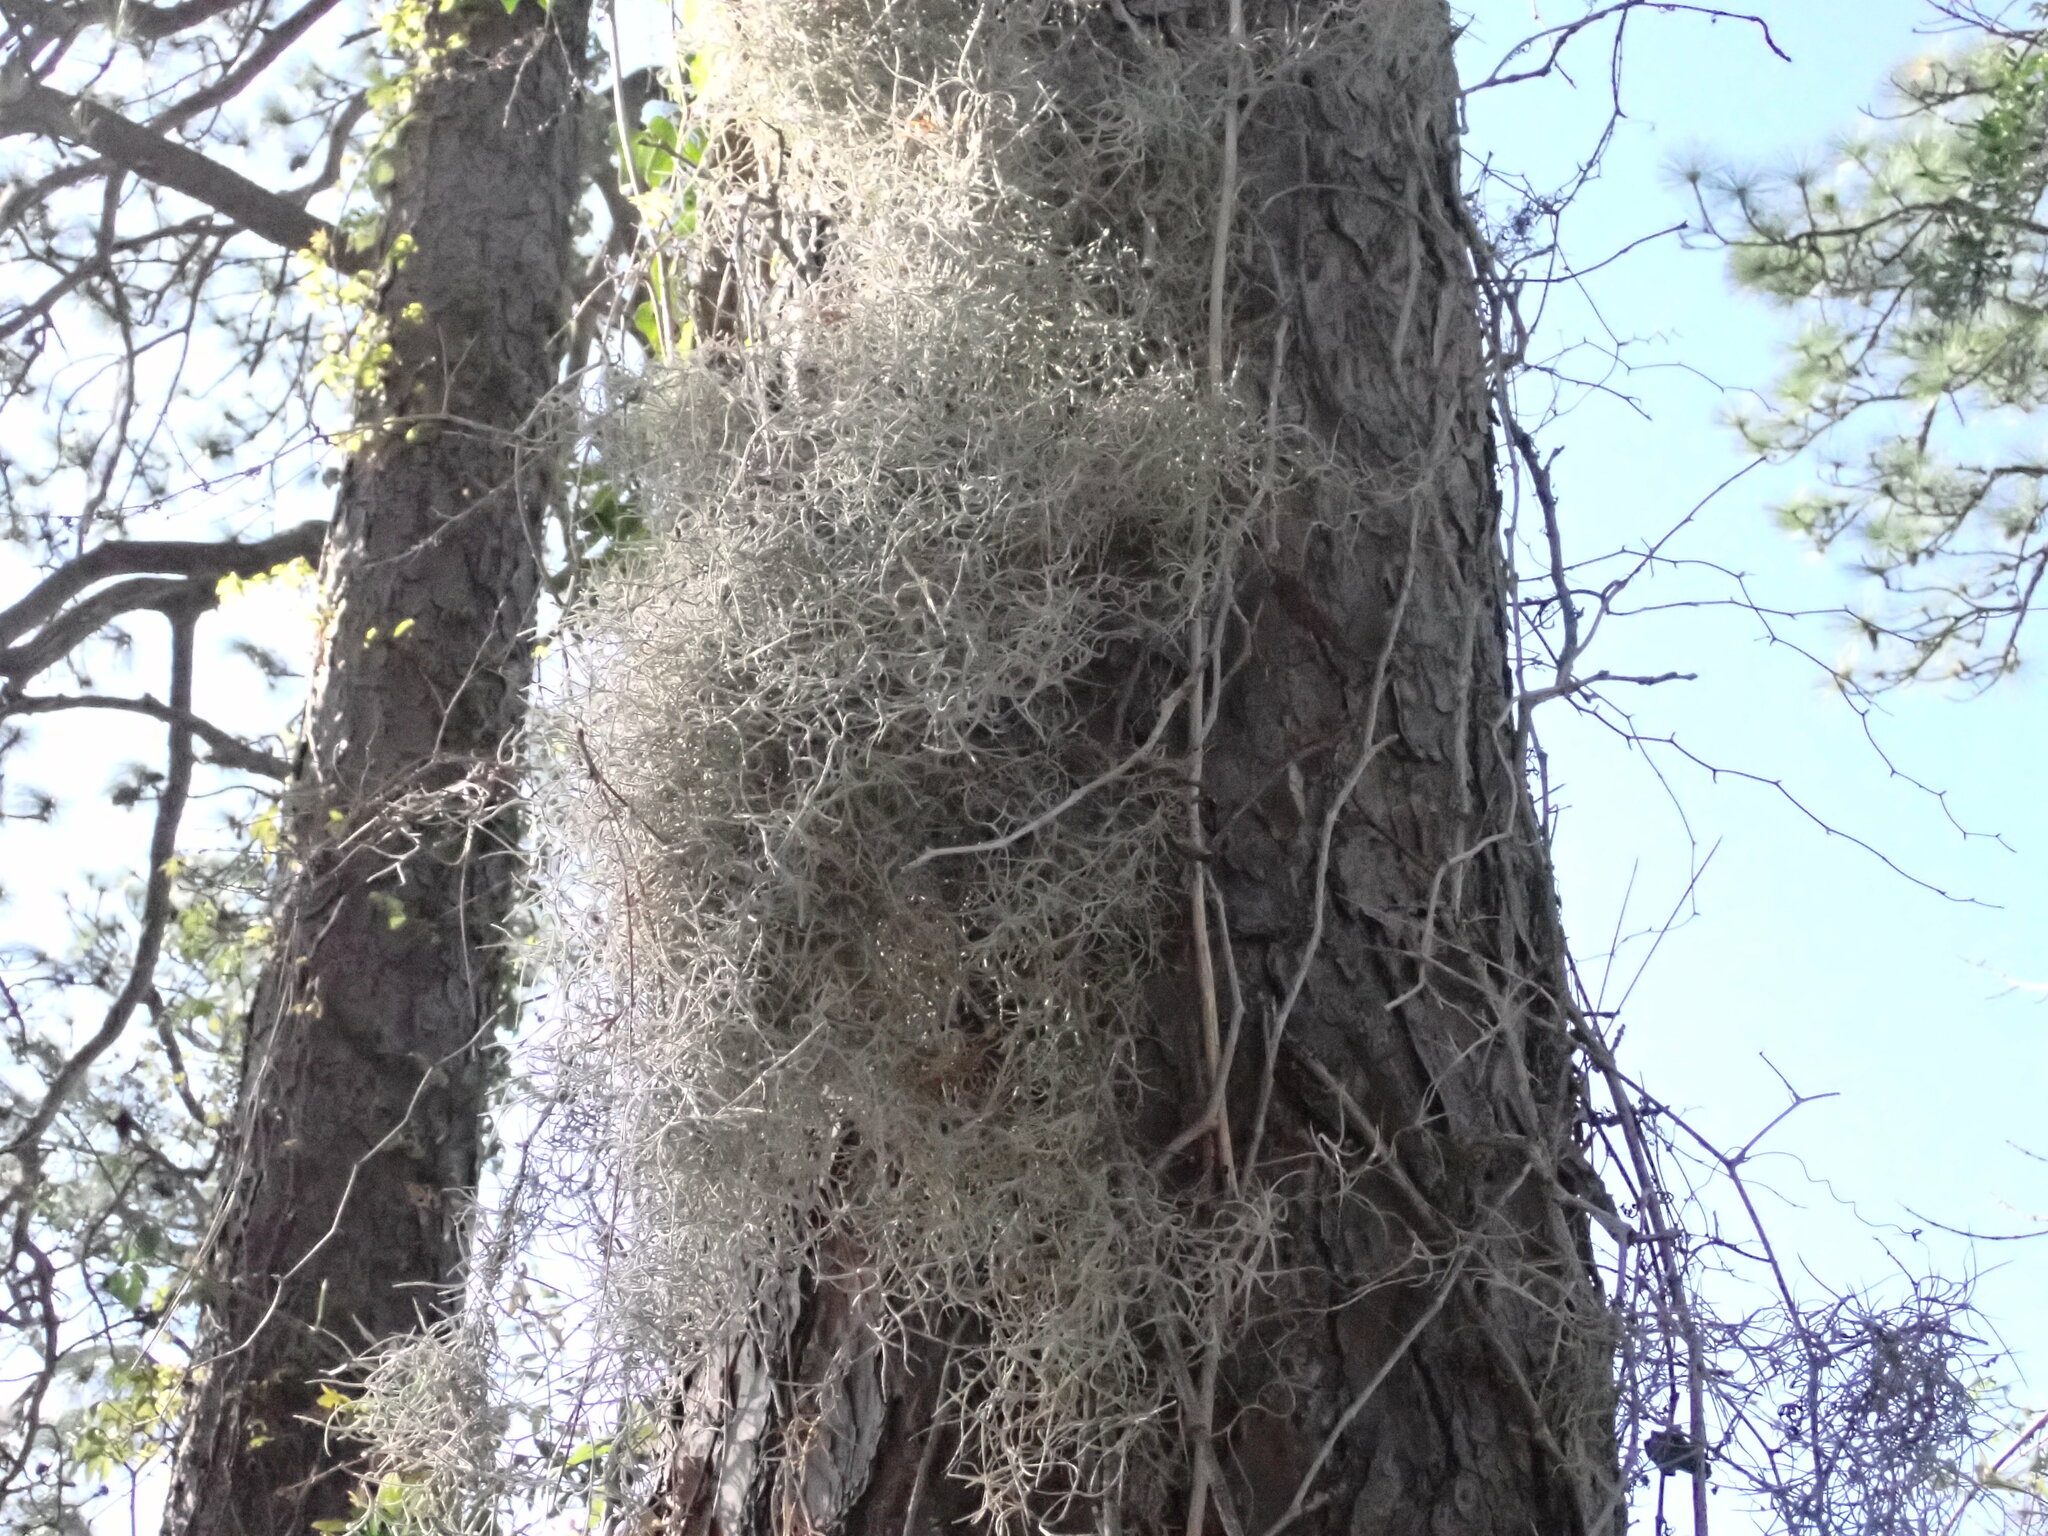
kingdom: Plantae
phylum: Tracheophyta
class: Liliopsida
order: Poales
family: Bromeliaceae
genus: Tillandsia
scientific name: Tillandsia usneoides
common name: Spanish moss
